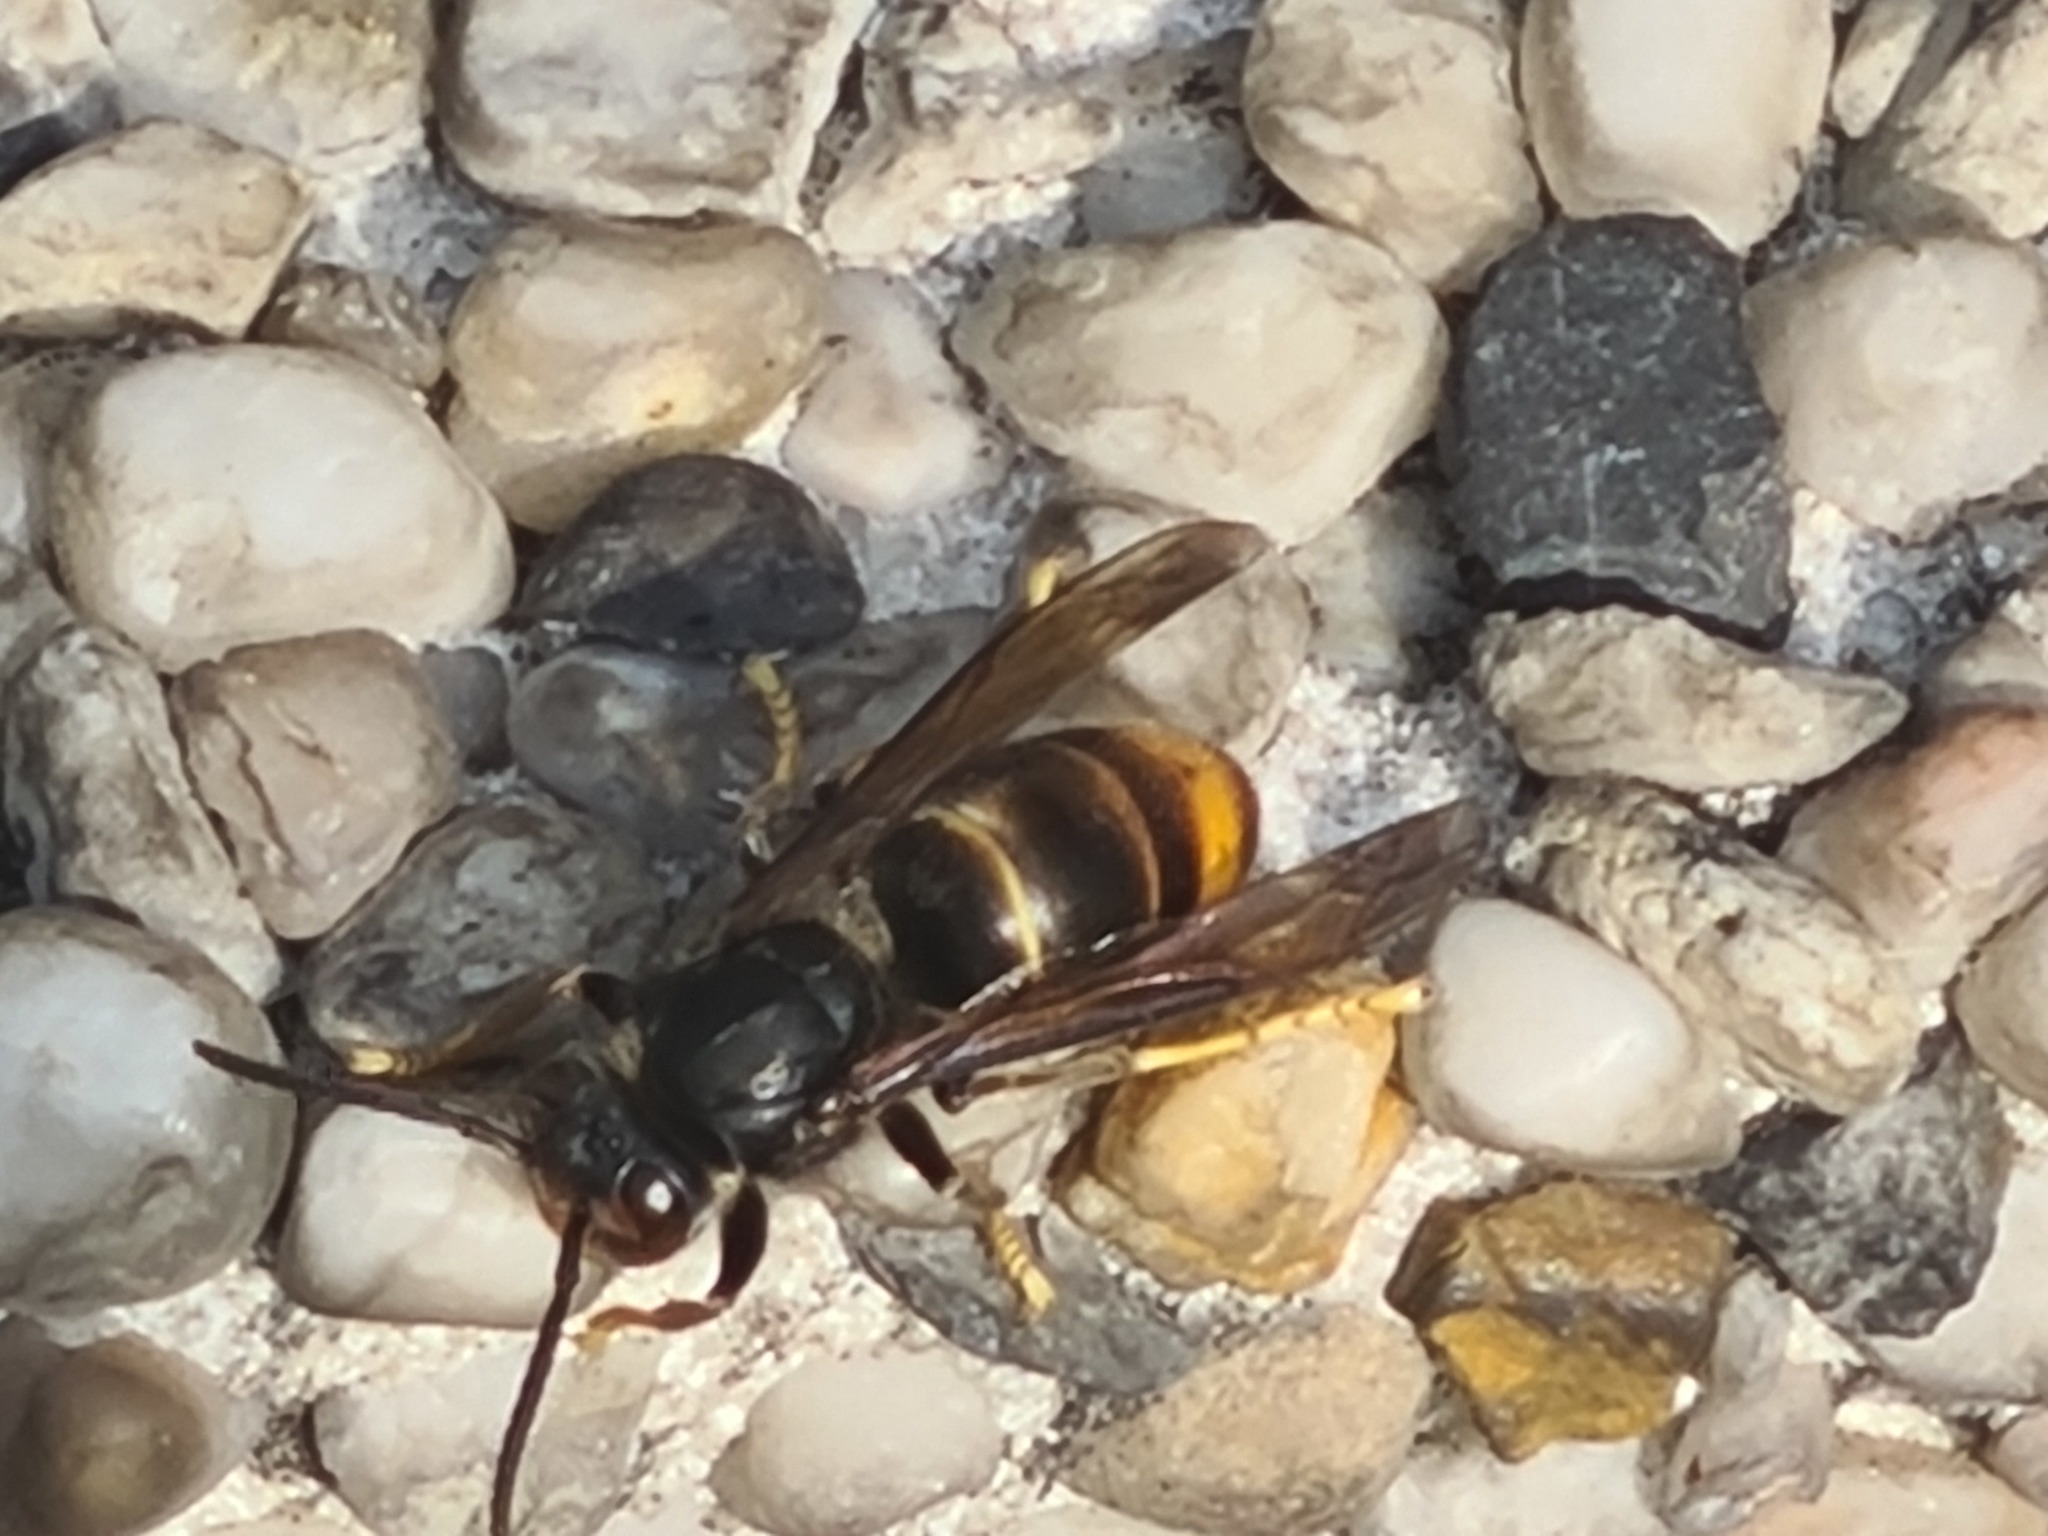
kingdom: Animalia
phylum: Arthropoda
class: Insecta
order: Hymenoptera
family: Vespidae
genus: Vespa
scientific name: Vespa velutina
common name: Asian hornet
